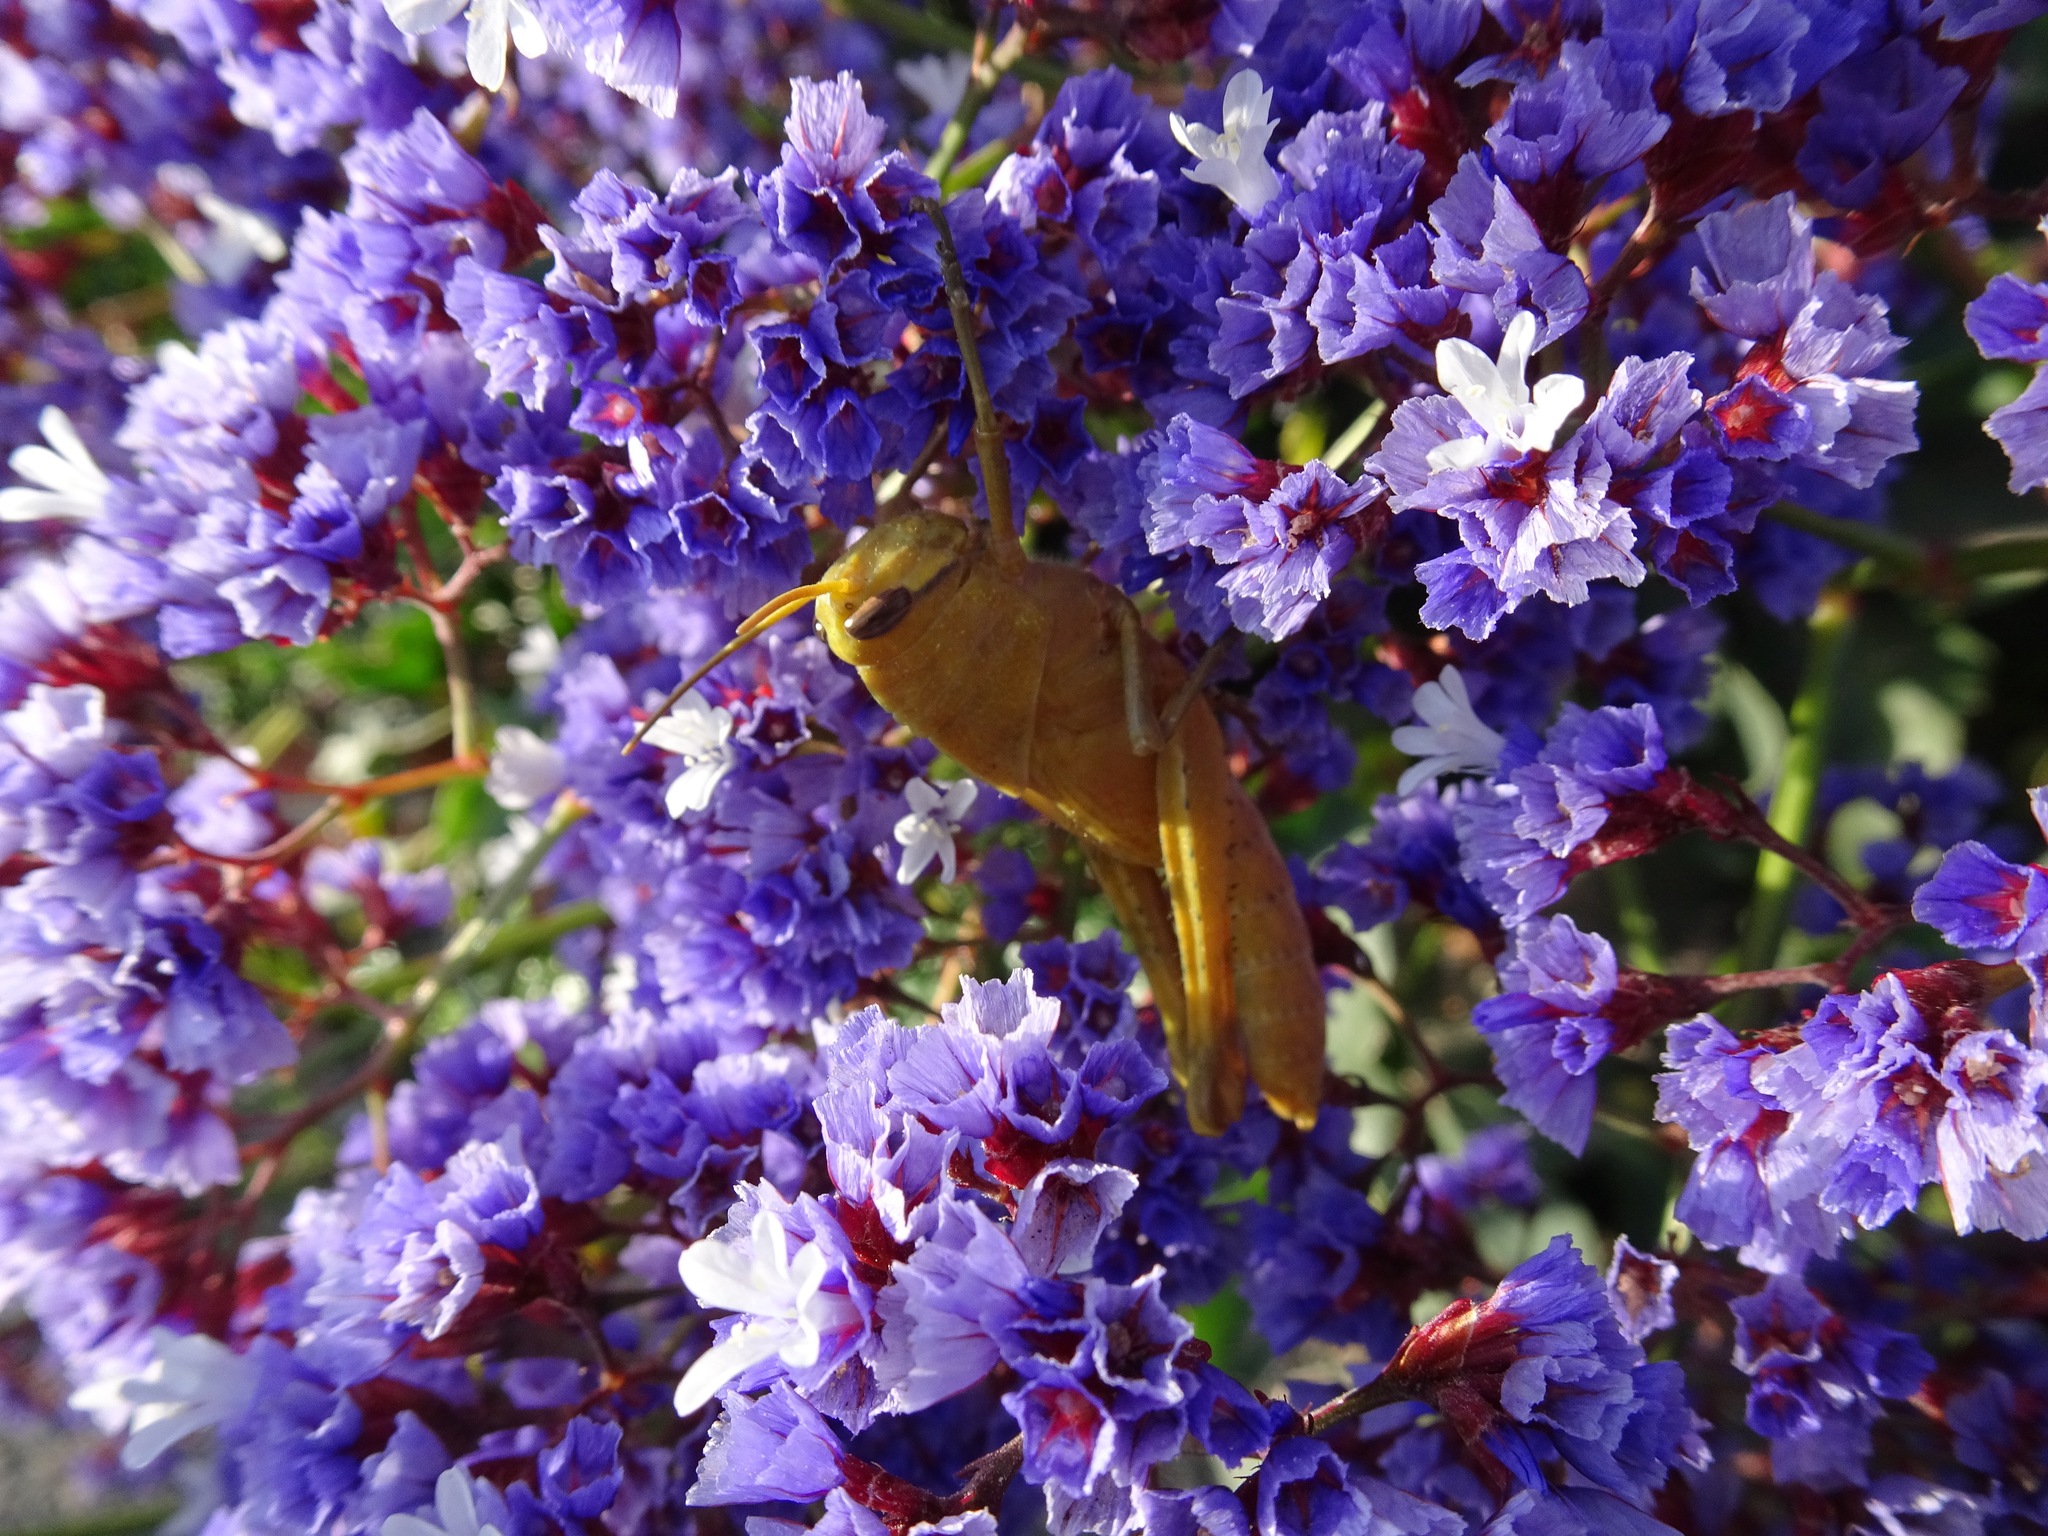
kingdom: Animalia
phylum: Arthropoda
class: Insecta
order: Orthoptera
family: Acrididae
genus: Schistocerca
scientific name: Schistocerca nitens
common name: Vagrant grasshopper
